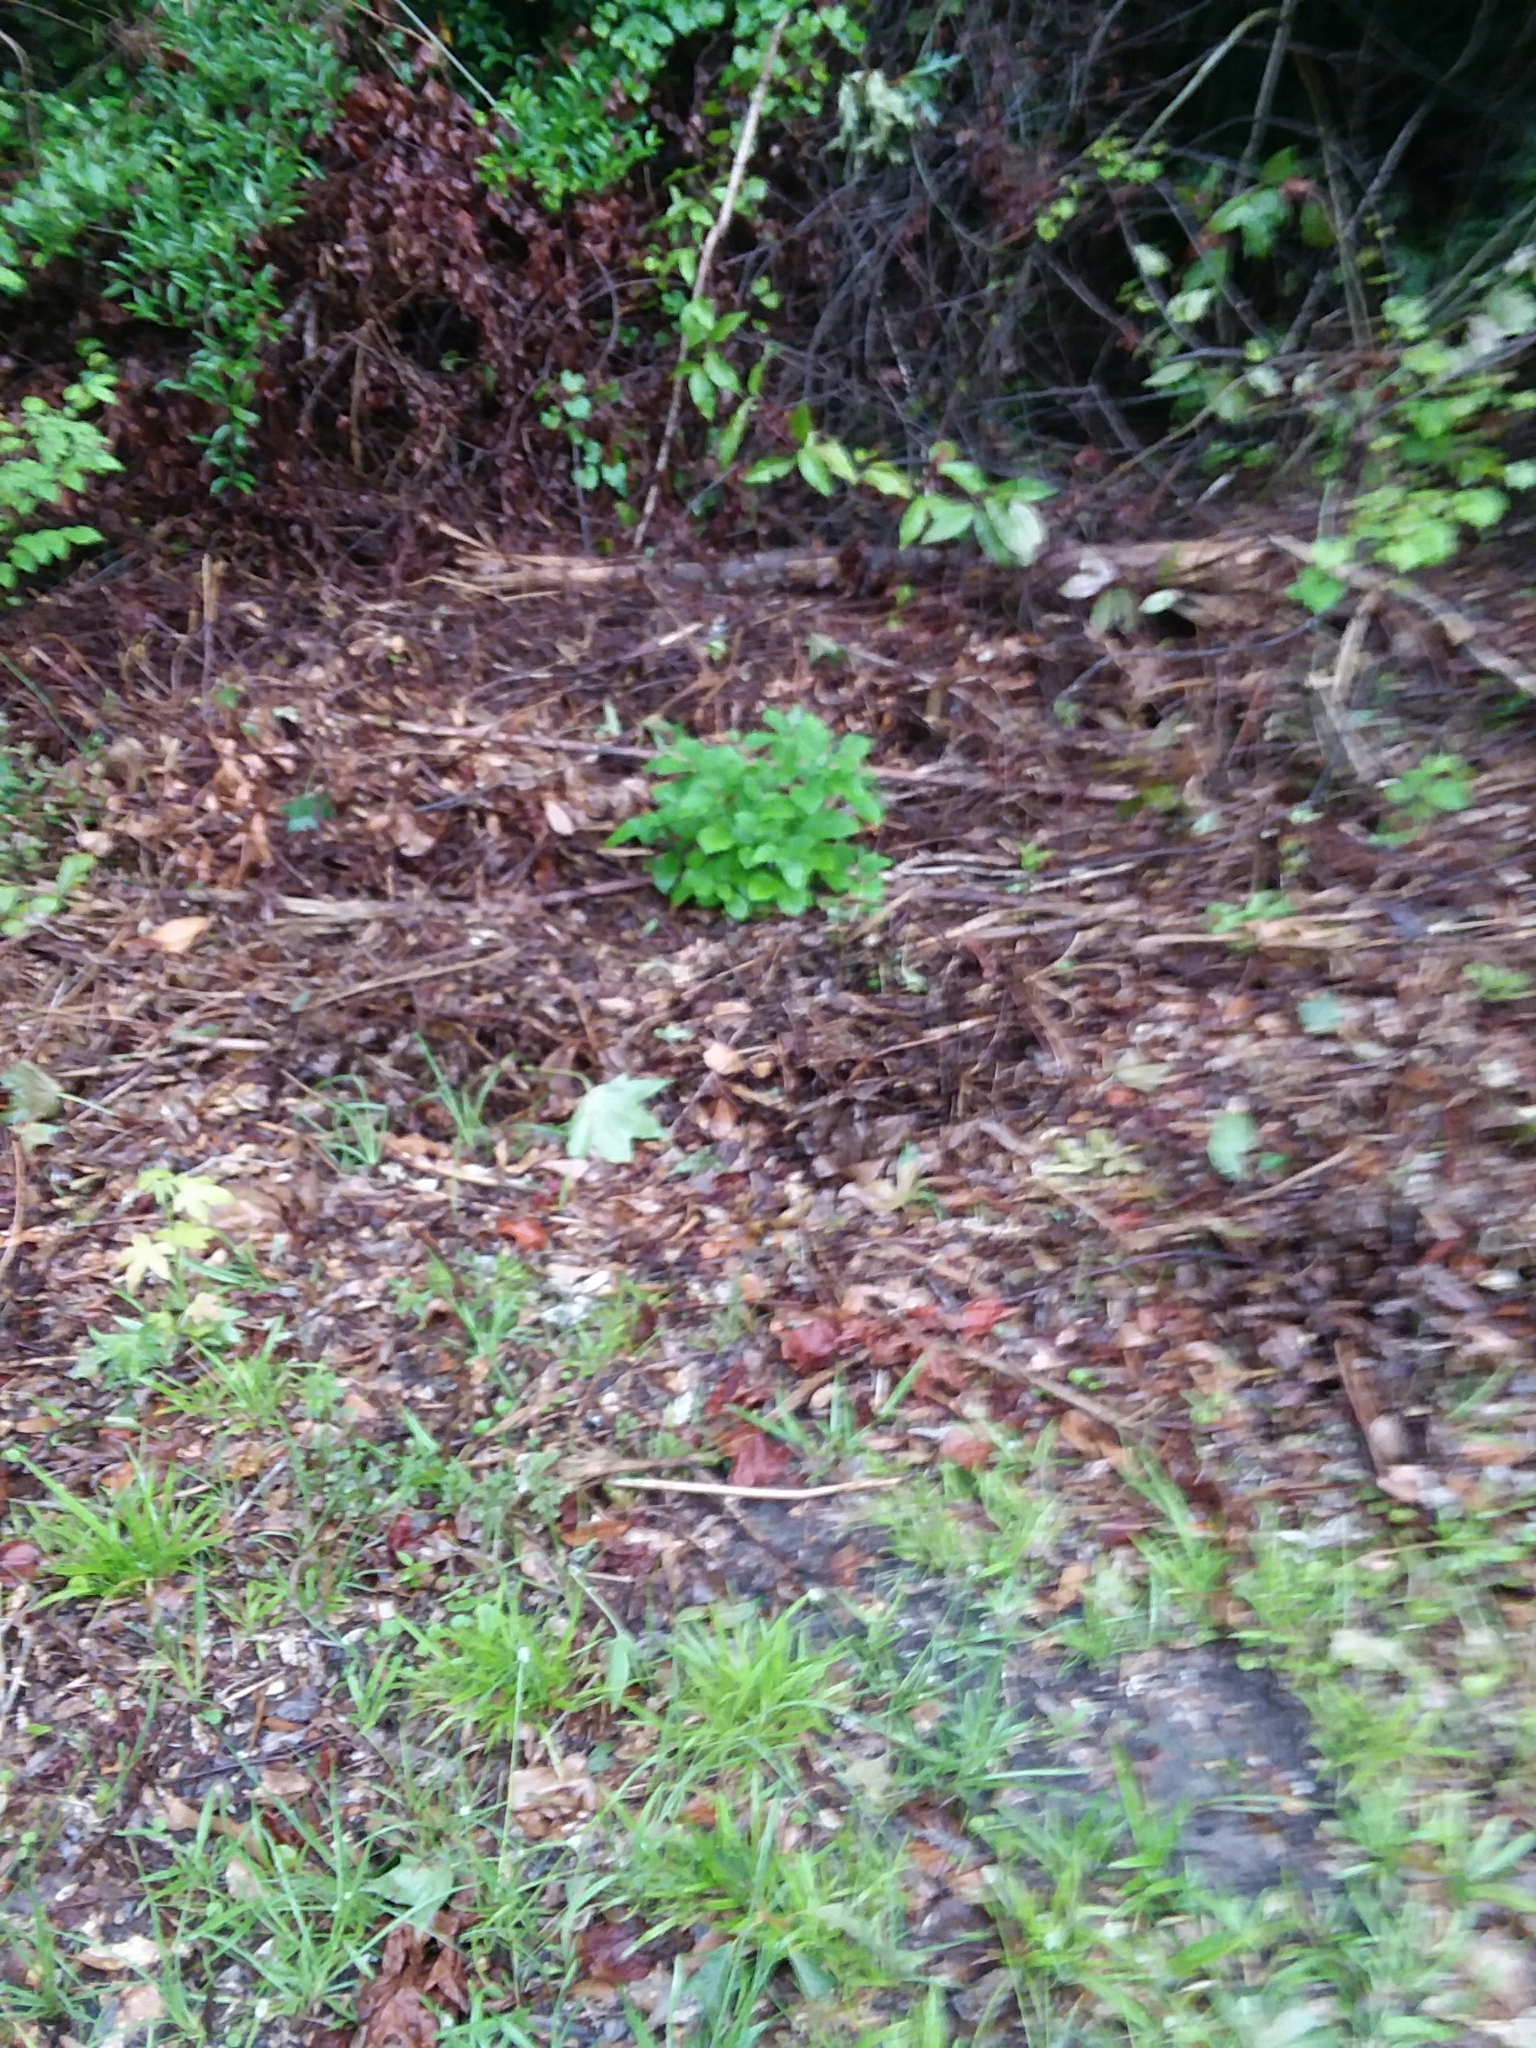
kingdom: Plantae
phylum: Tracheophyta
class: Magnoliopsida
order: Lamiales
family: Lamiaceae
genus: Callicarpa
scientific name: Callicarpa americana
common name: American beautyberry
